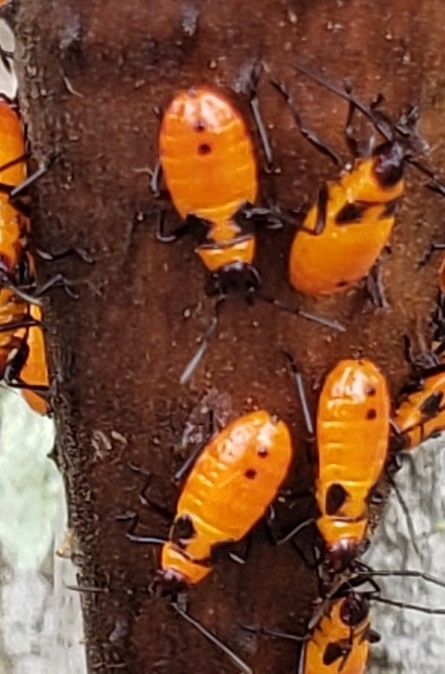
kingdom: Animalia
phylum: Arthropoda
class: Insecta
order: Hemiptera
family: Lygaeidae
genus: Oncopeltus
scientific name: Oncopeltus fasciatus
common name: Large milkweed bug
